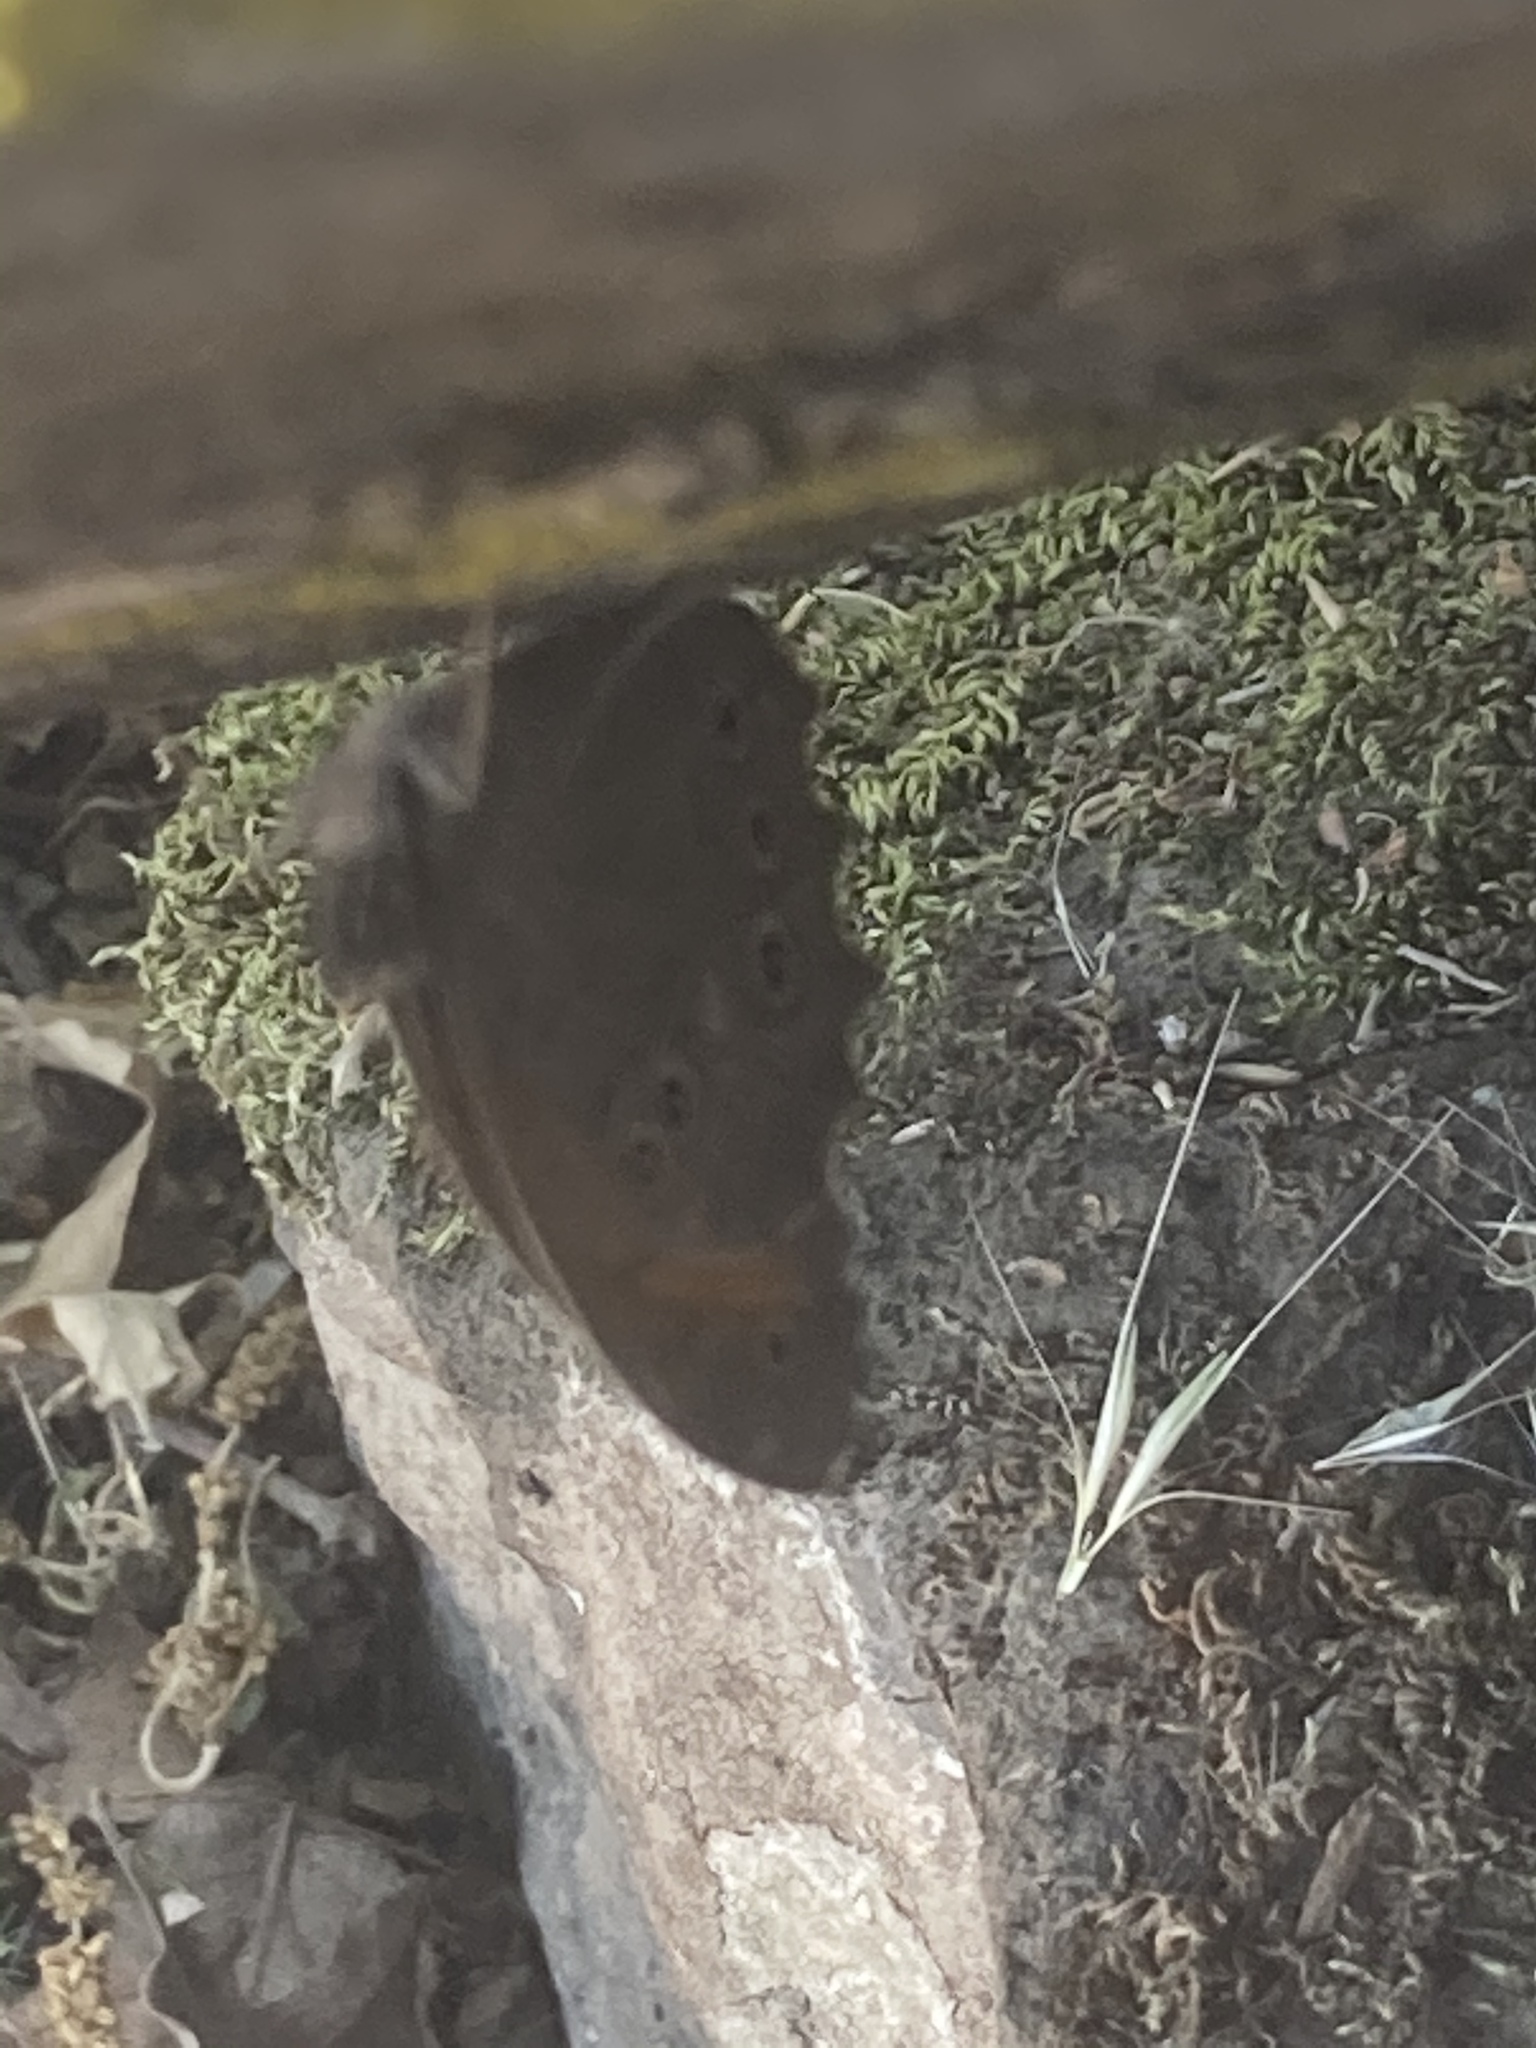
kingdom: Animalia
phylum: Arthropoda
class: Insecta
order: Lepidoptera
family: Nymphalidae
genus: Kirinia
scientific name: Kirinia roxelana
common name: Lattice brown
